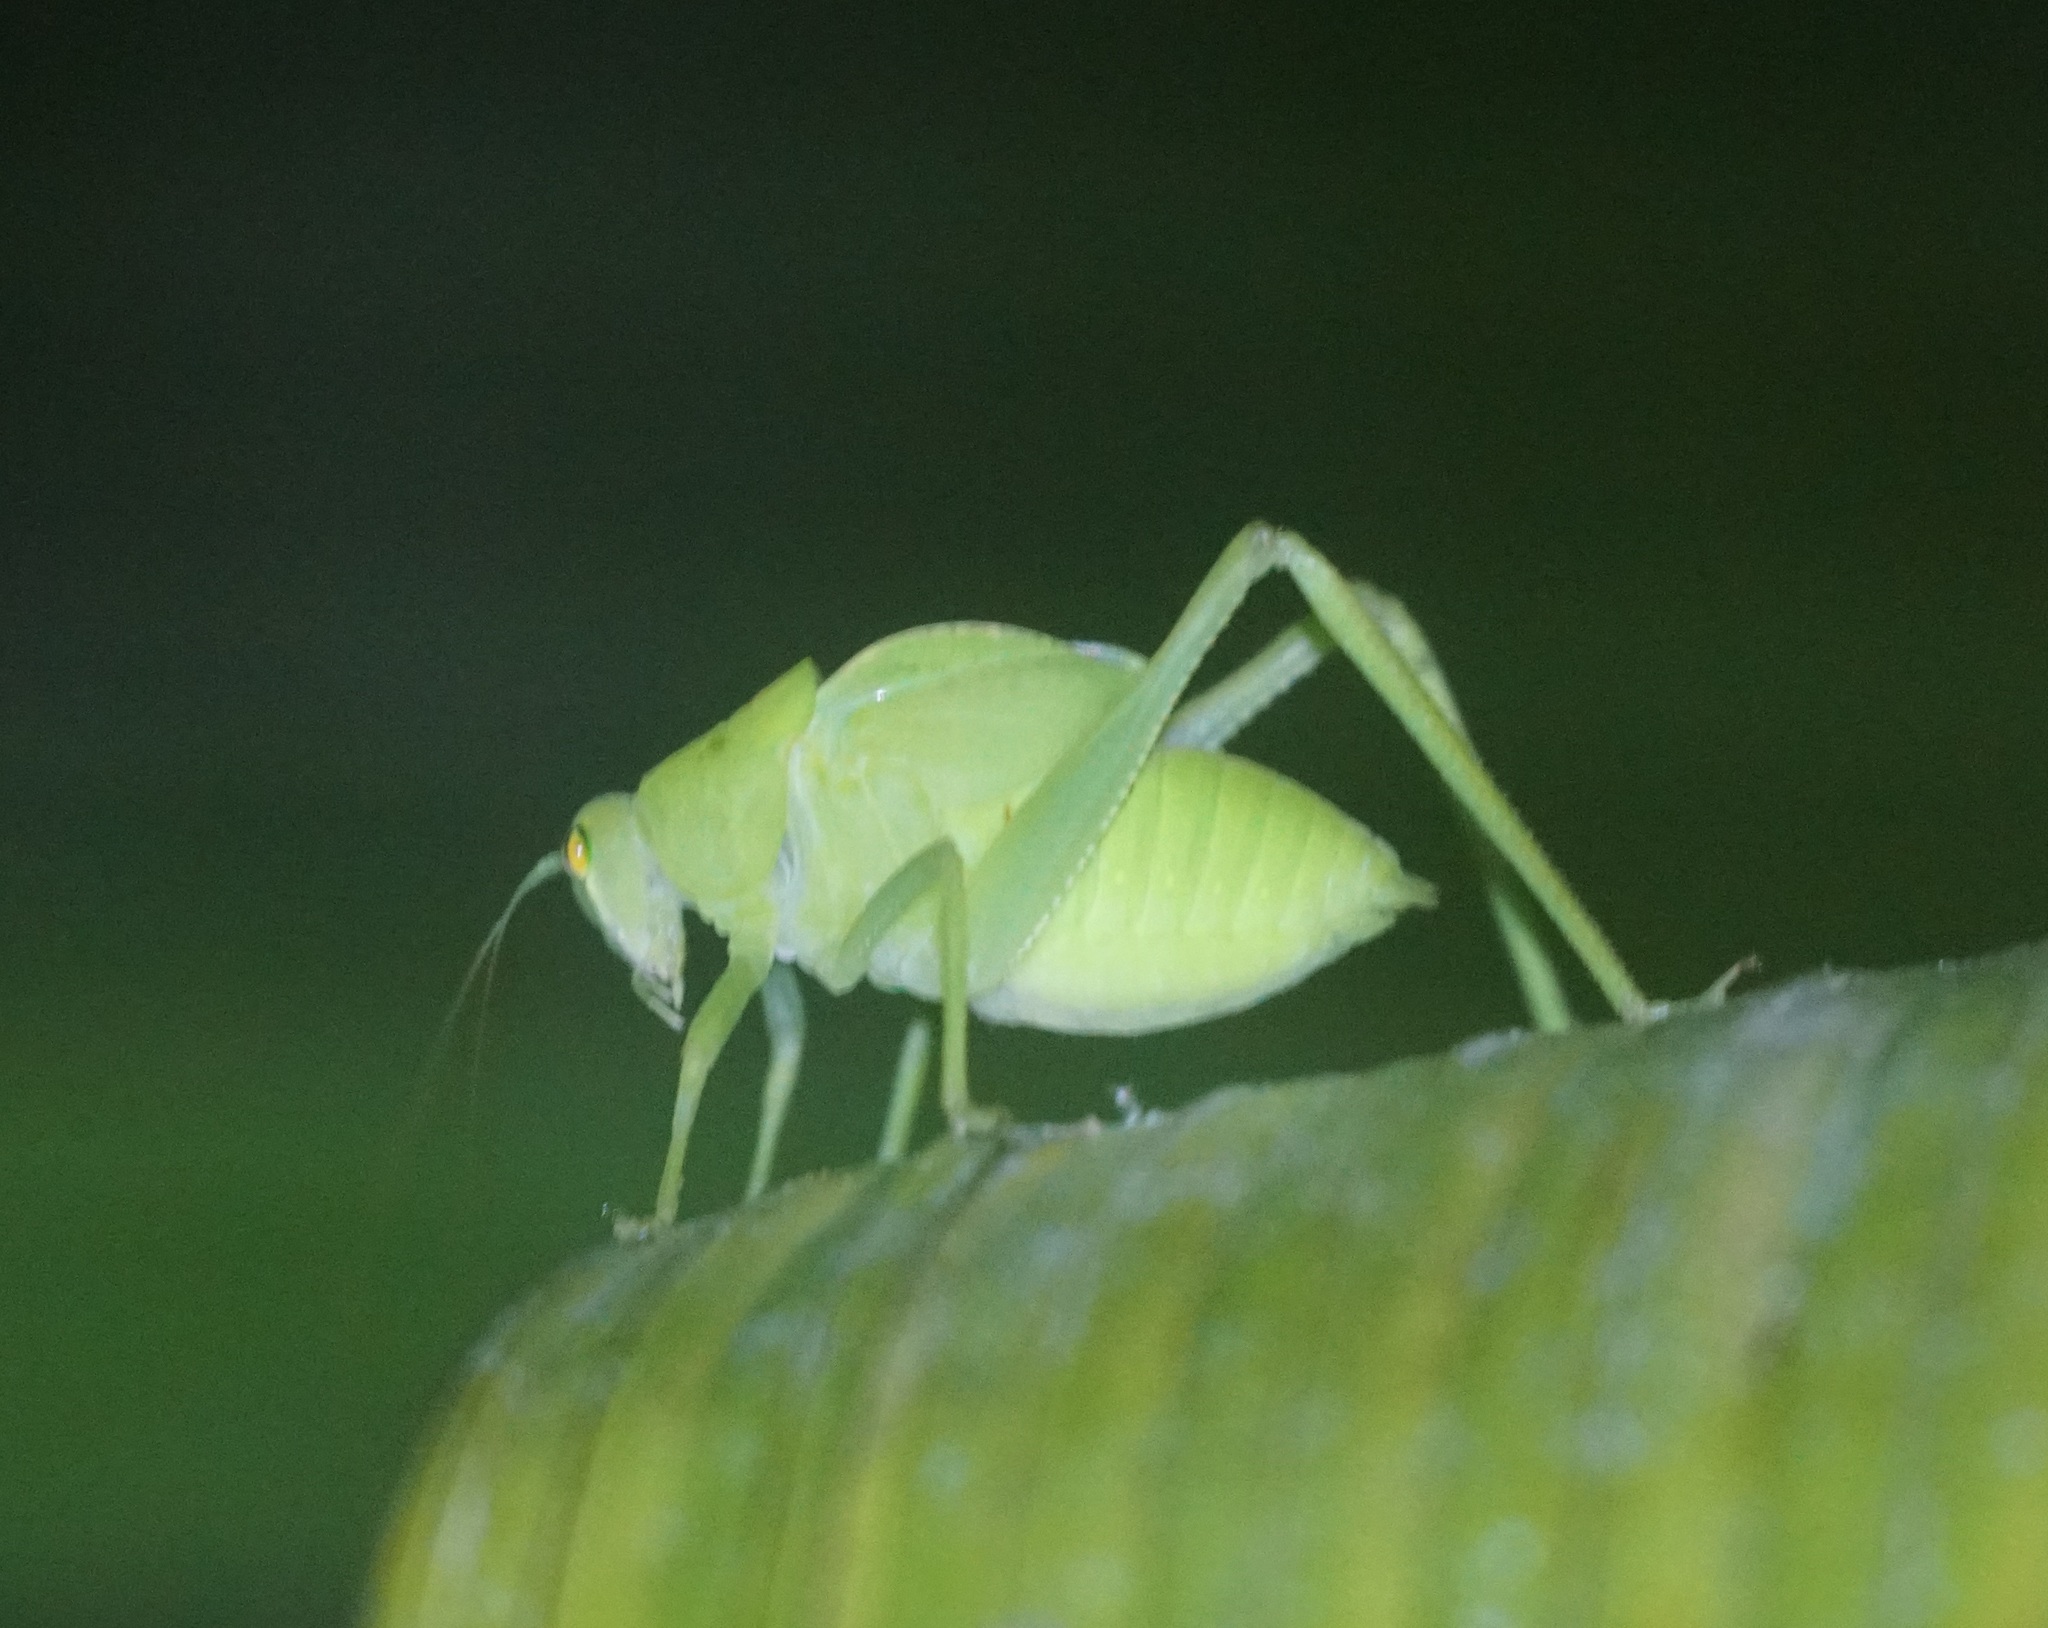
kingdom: Animalia
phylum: Arthropoda
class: Insecta
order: Orthoptera
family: Tettigoniidae
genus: Paracaedicia
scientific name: Paracaedicia serrata
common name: Serrated bush katydid
